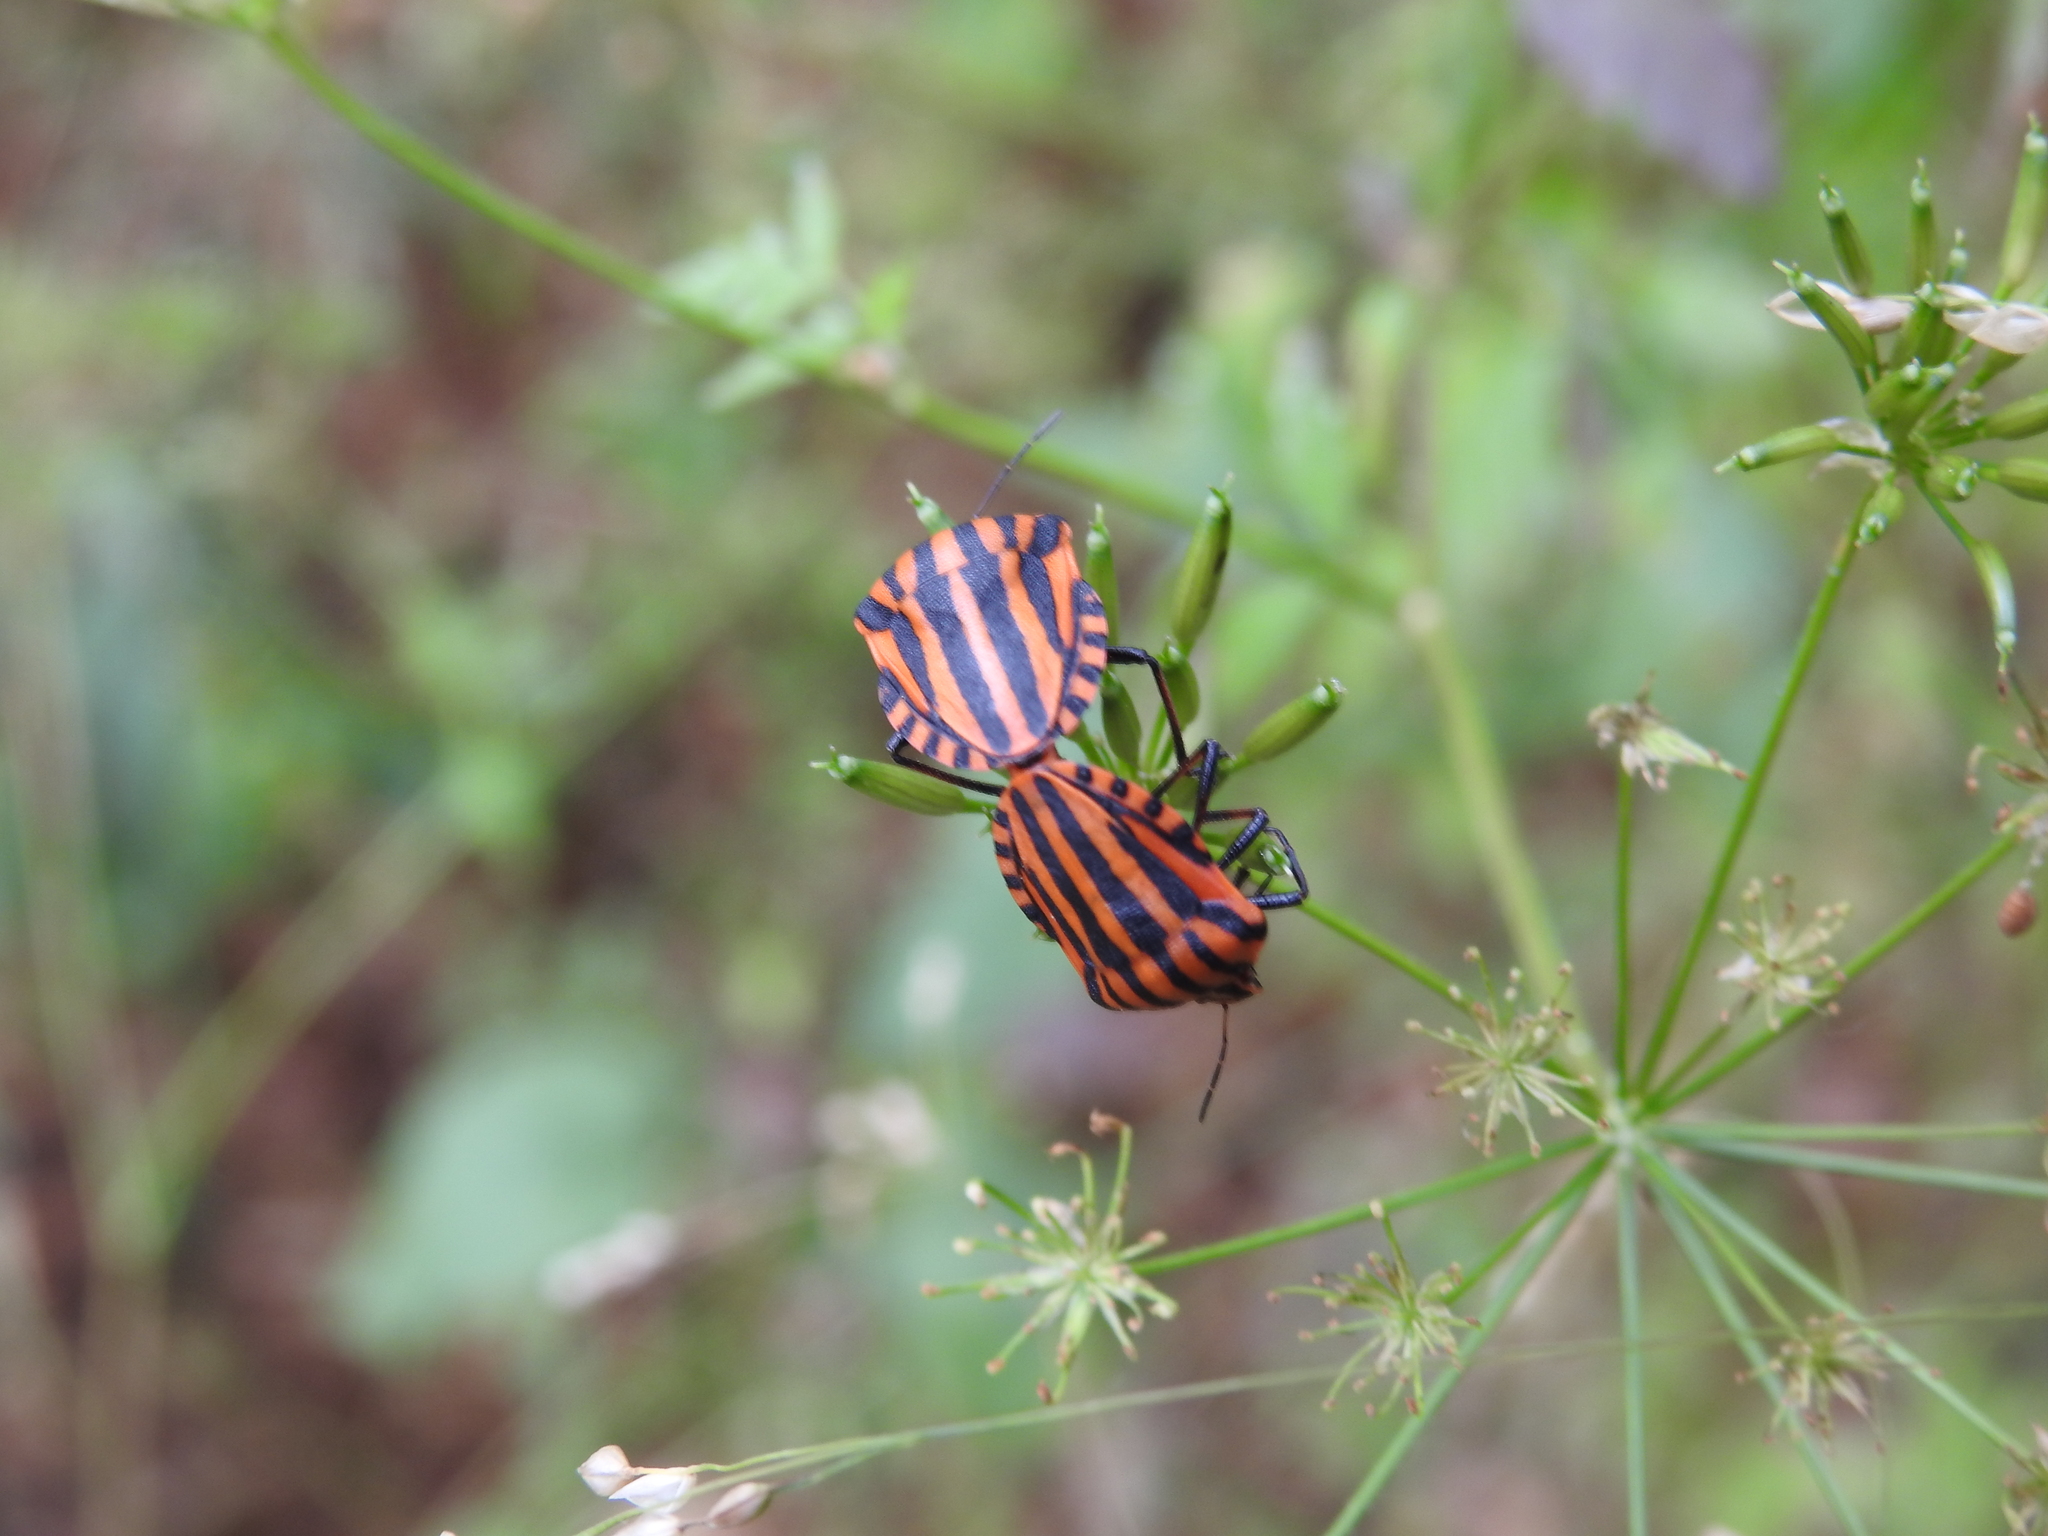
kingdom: Animalia
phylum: Arthropoda
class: Insecta
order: Hemiptera
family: Pentatomidae
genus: Graphosoma
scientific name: Graphosoma italicum
